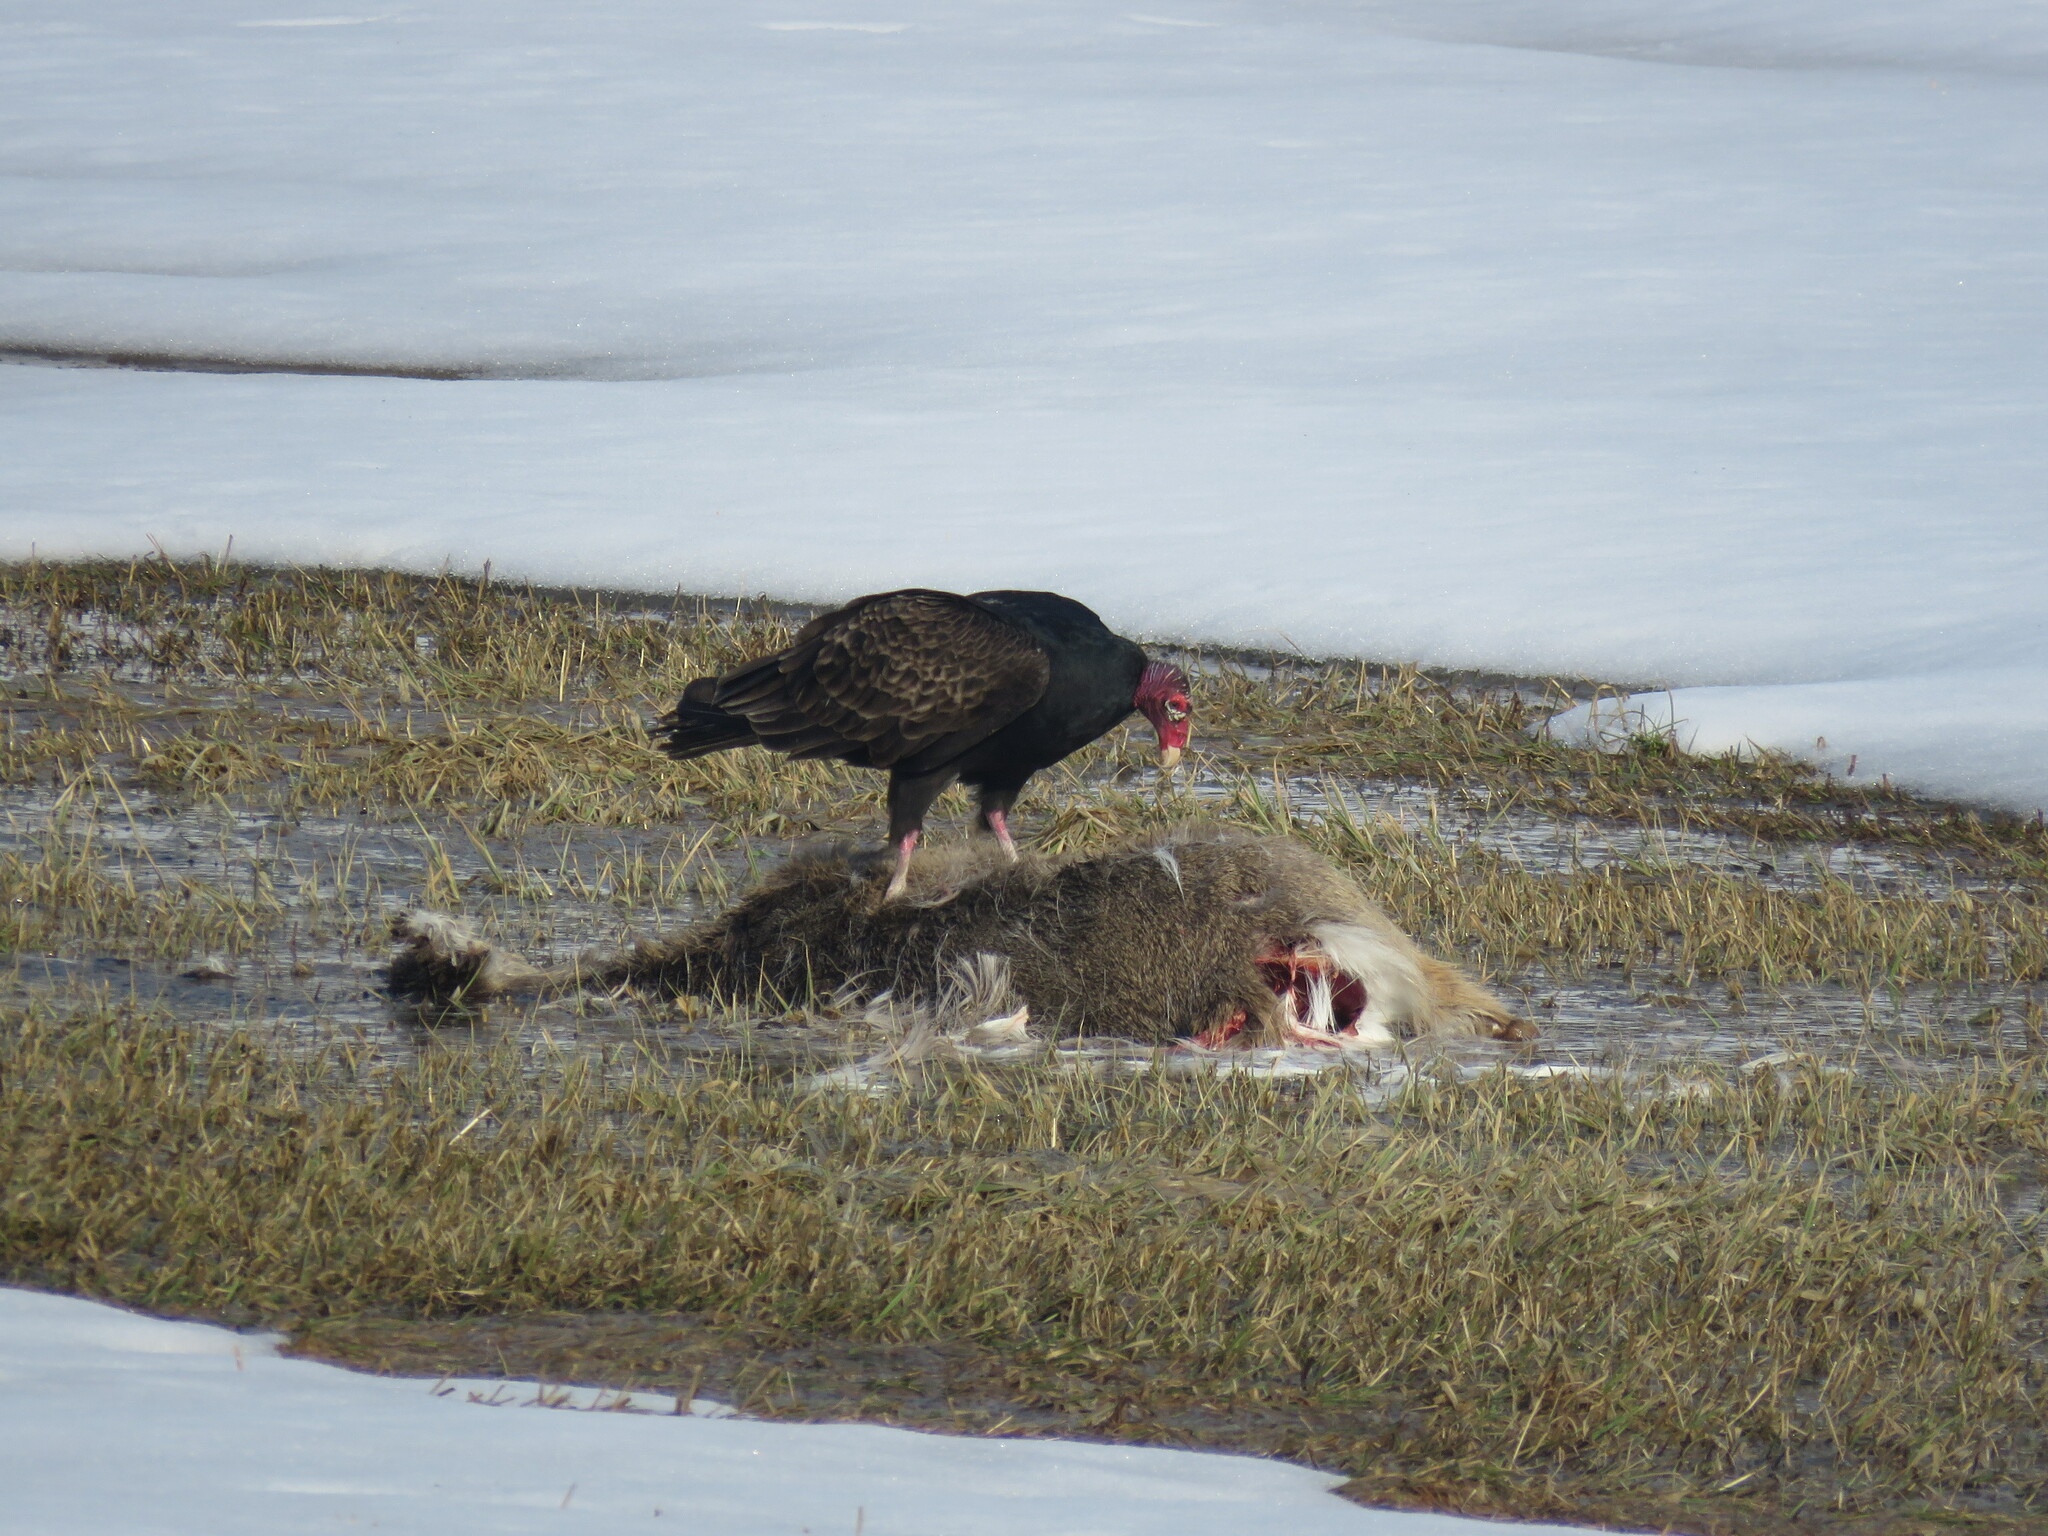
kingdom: Animalia
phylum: Chordata
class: Aves
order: Accipitriformes
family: Cathartidae
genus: Cathartes
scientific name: Cathartes aura
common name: Turkey vulture
